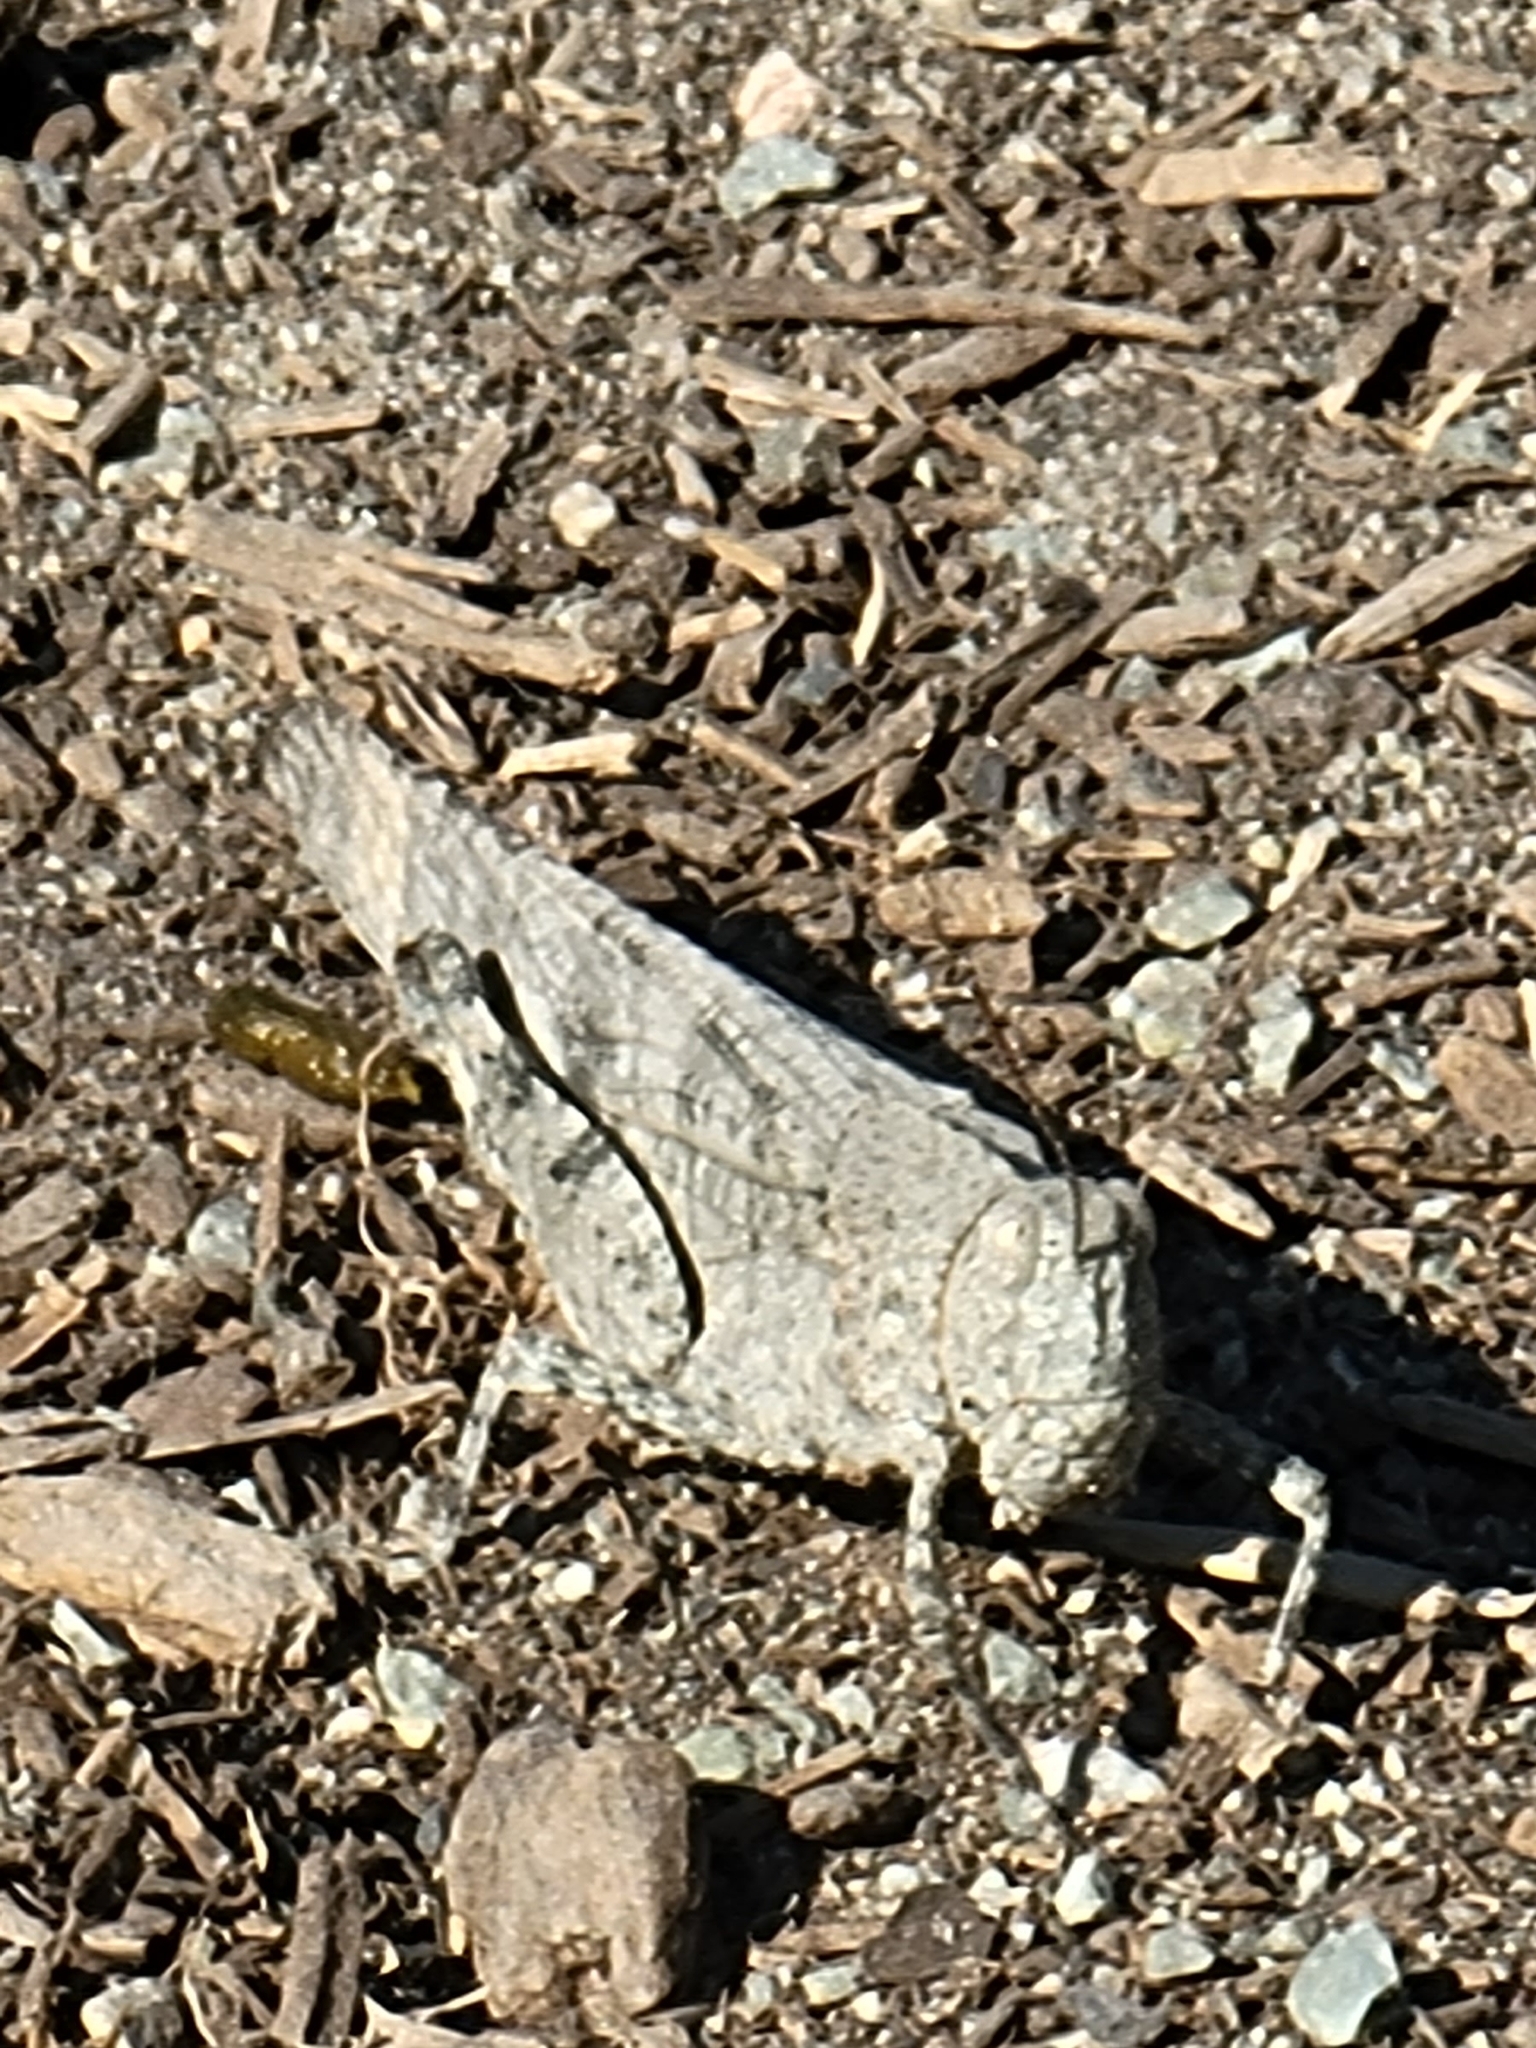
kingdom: Animalia
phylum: Arthropoda
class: Insecta
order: Orthoptera
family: Acrididae
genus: Dissosteira
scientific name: Dissosteira carolina
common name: Carolina grasshopper
